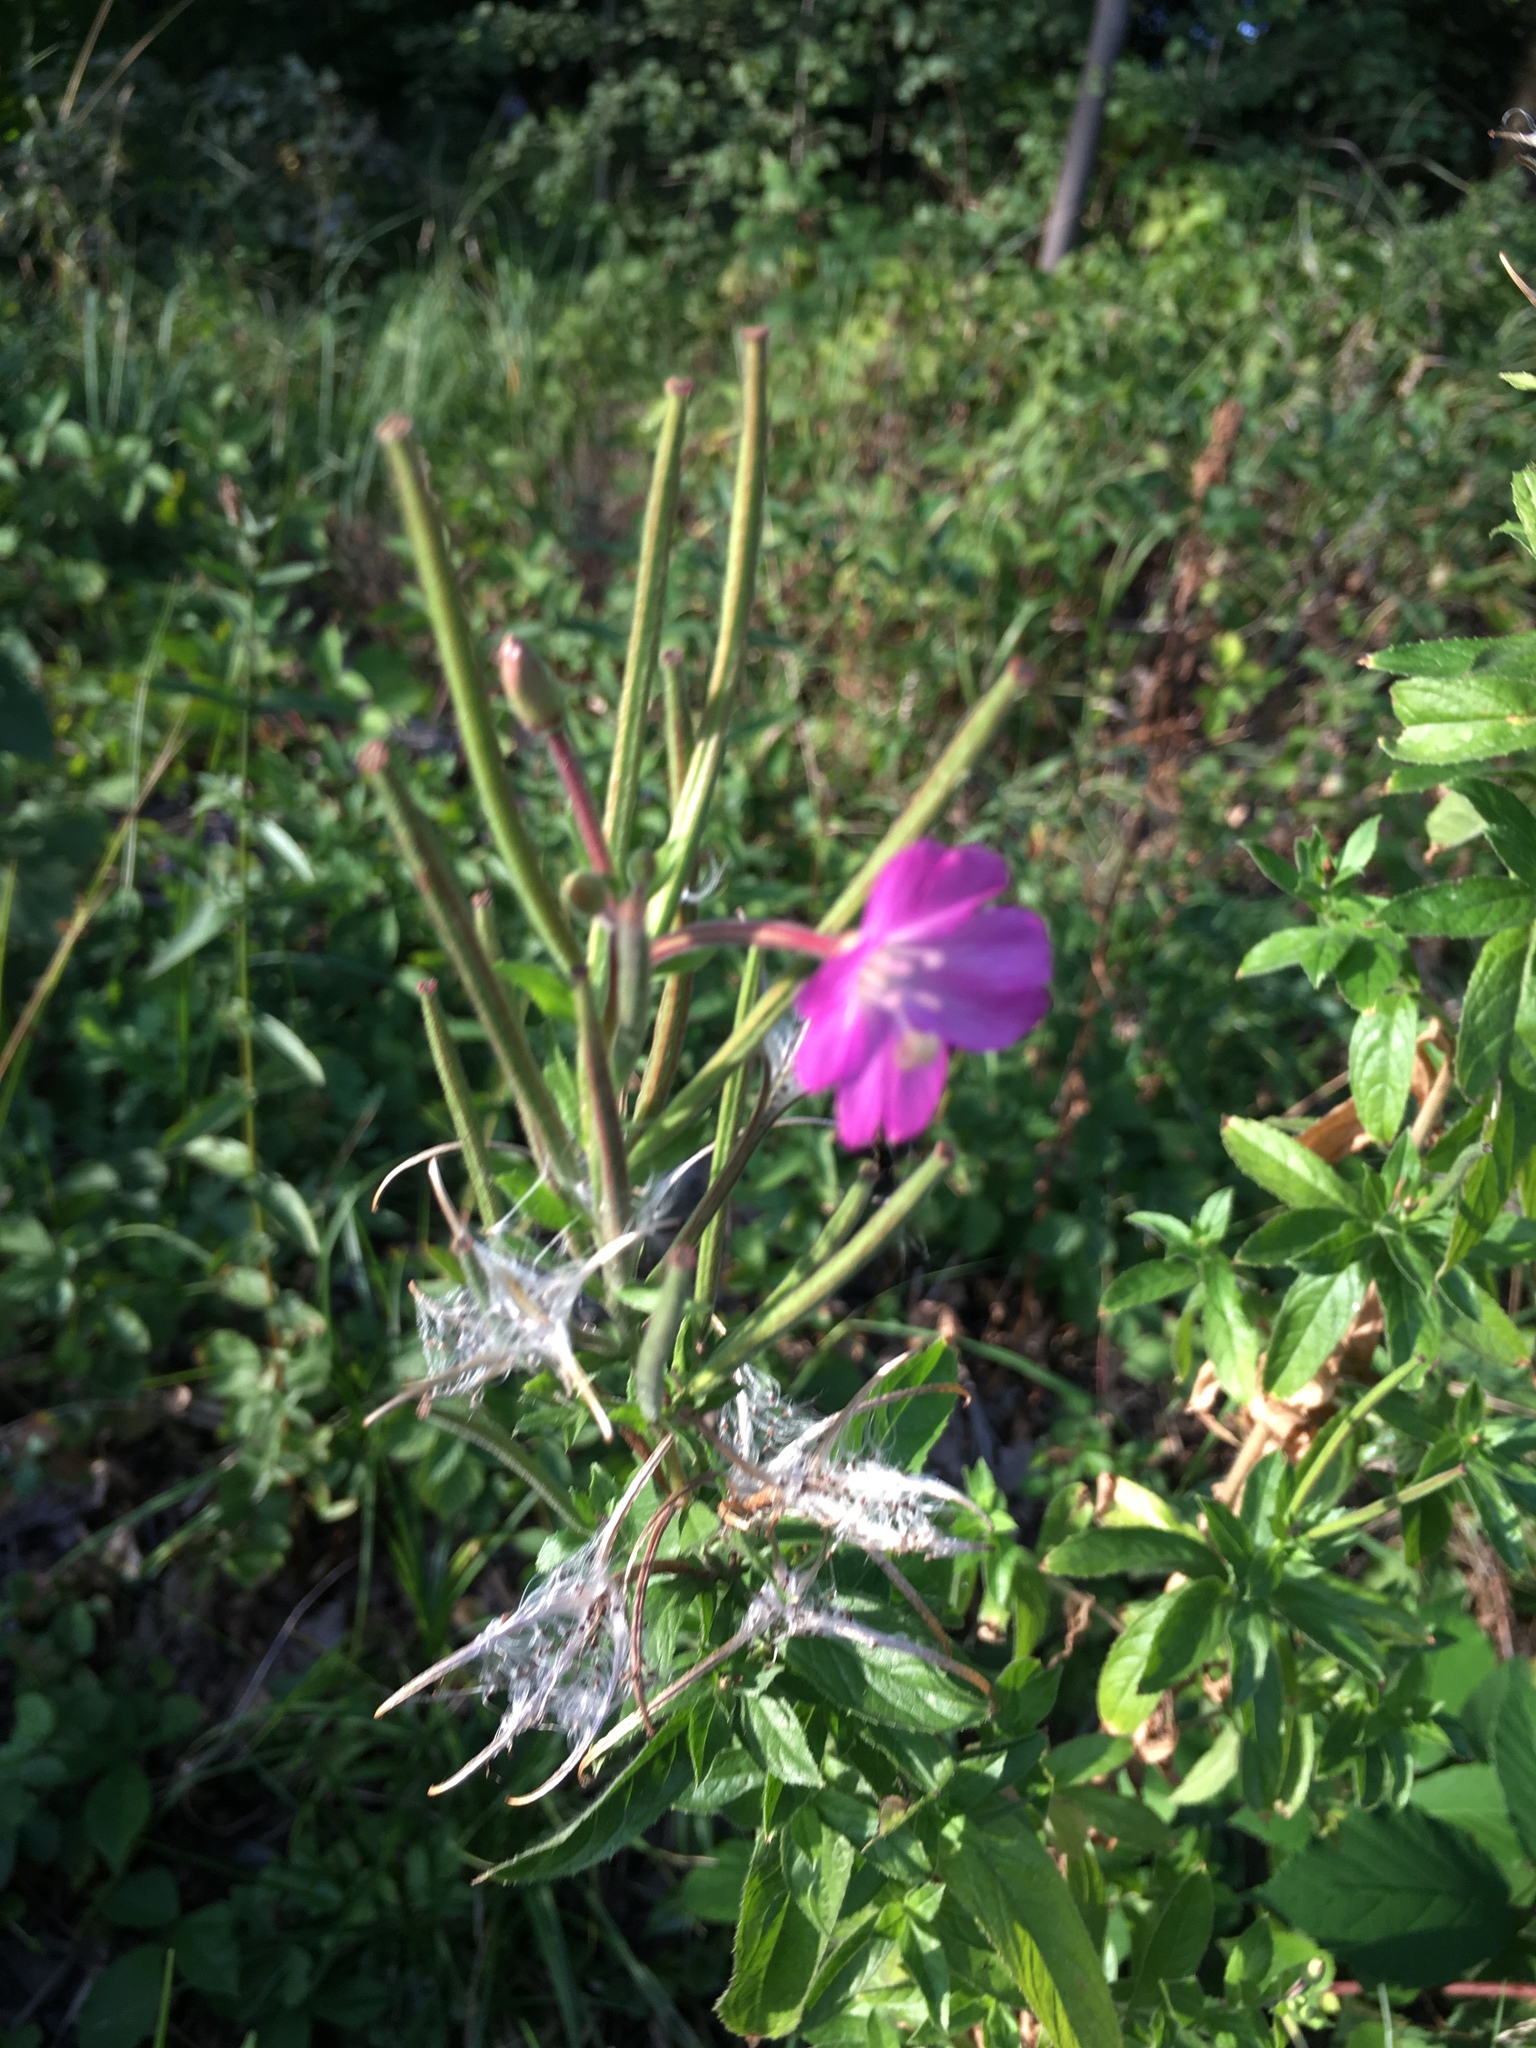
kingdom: Plantae
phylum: Tracheophyta
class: Magnoliopsida
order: Myrtales
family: Onagraceae
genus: Epilobium
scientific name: Epilobium hirsutum
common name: Great willowherb
